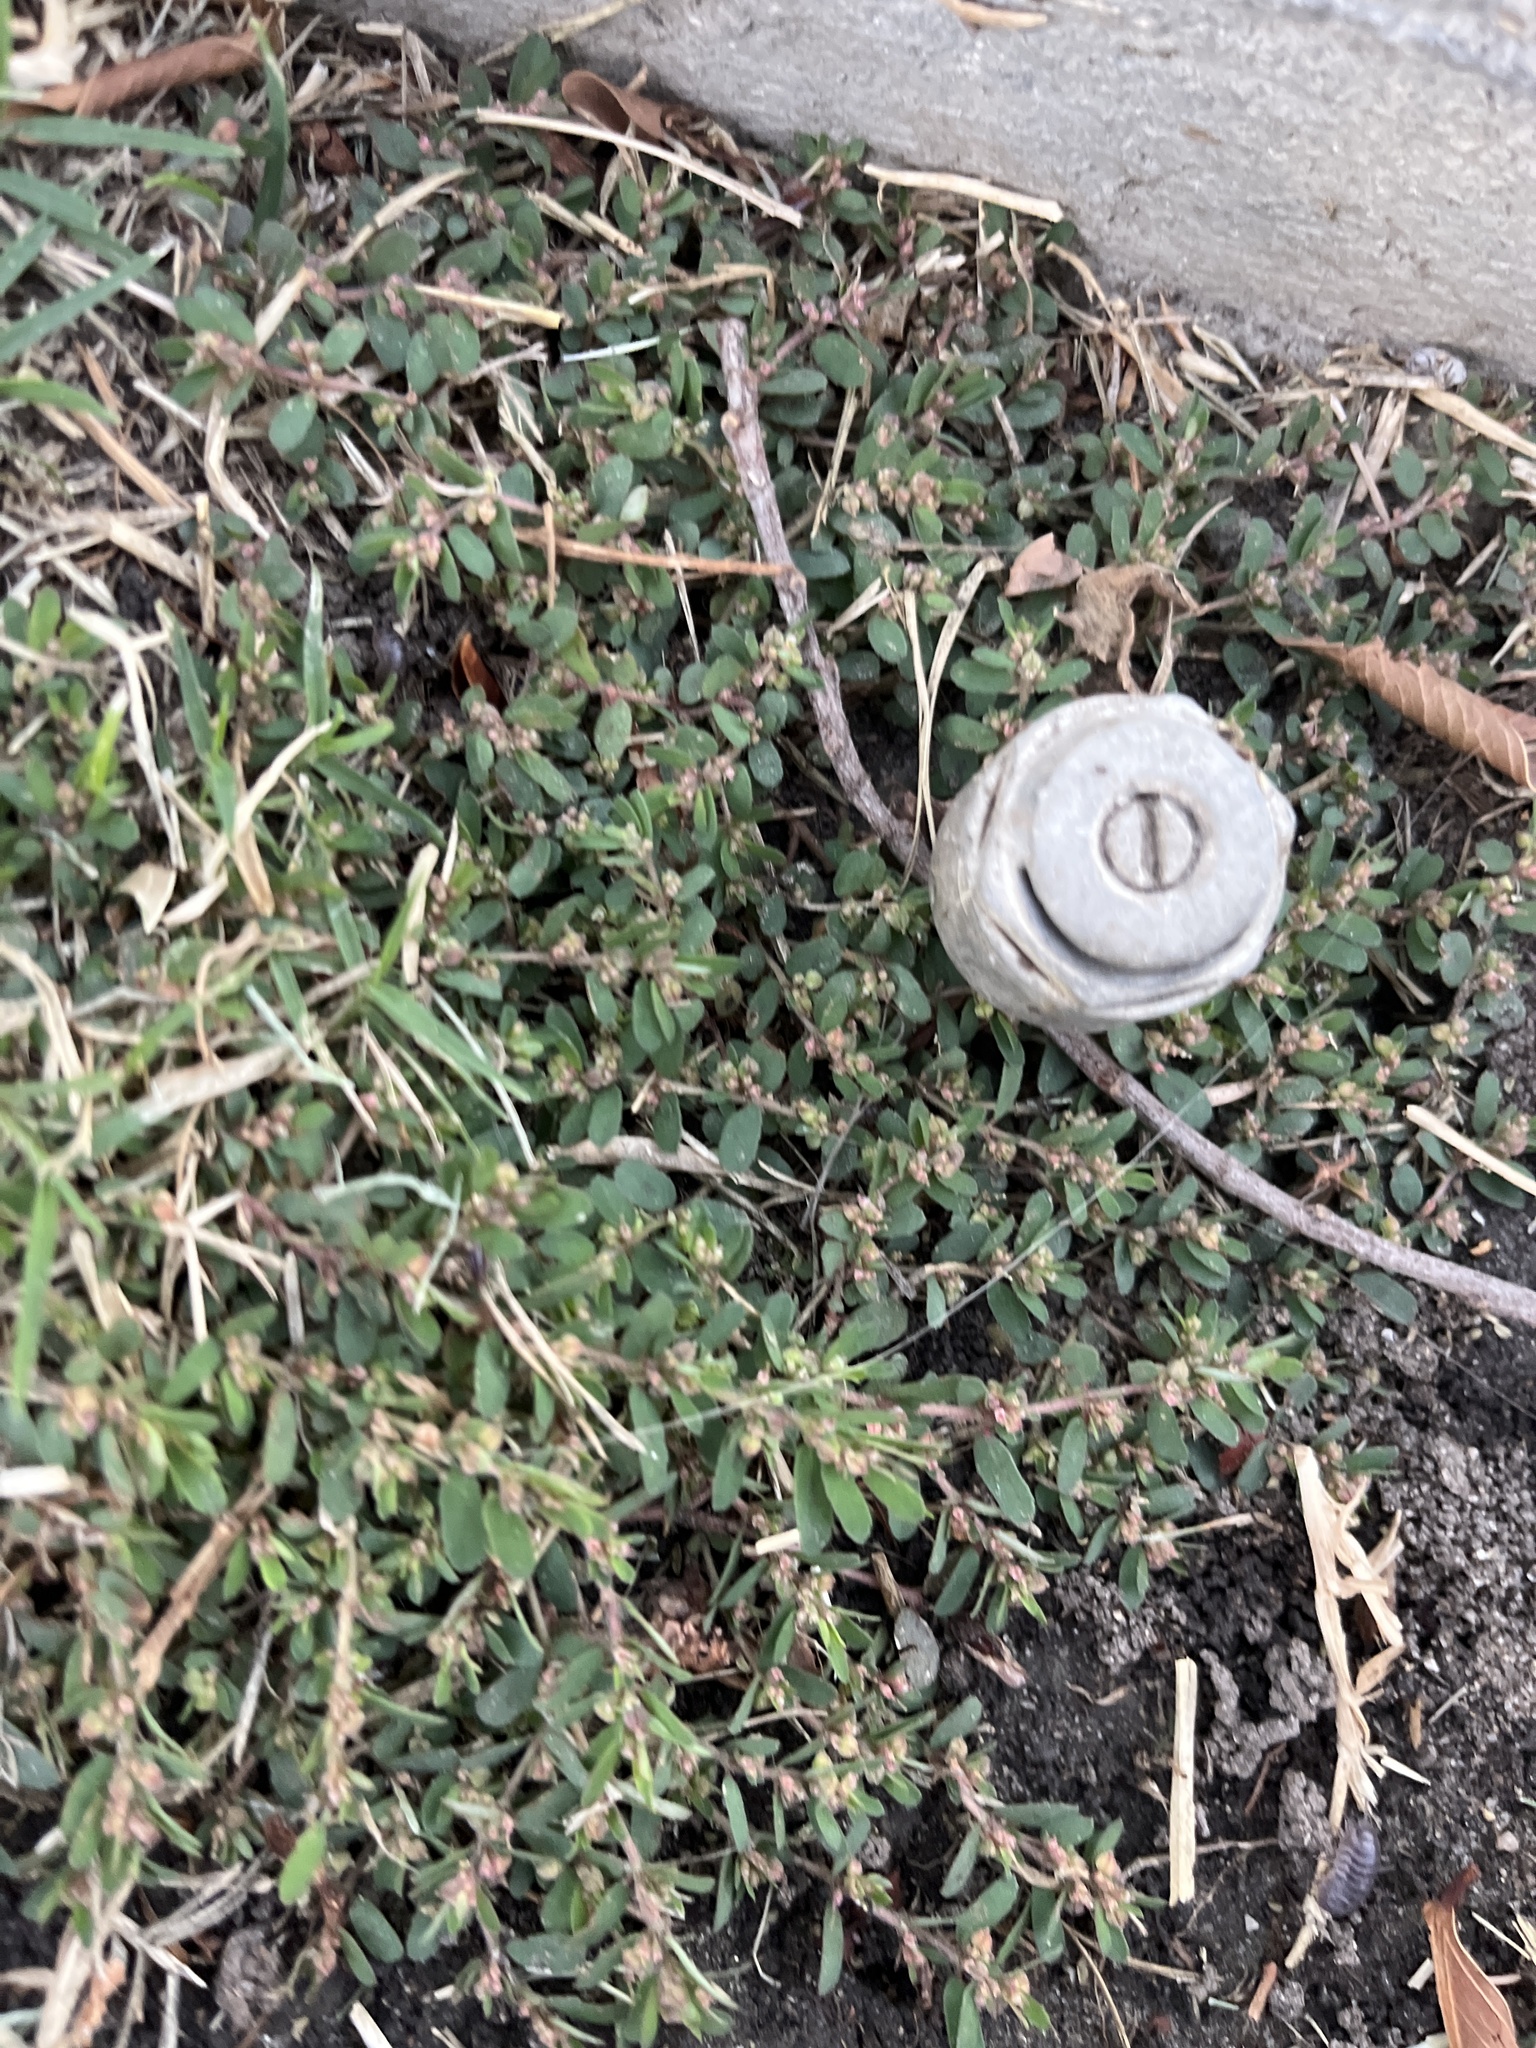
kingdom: Plantae
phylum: Tracheophyta
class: Magnoliopsida
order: Malpighiales
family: Euphorbiaceae
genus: Euphorbia
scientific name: Euphorbia maculata
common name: Spotted spurge
